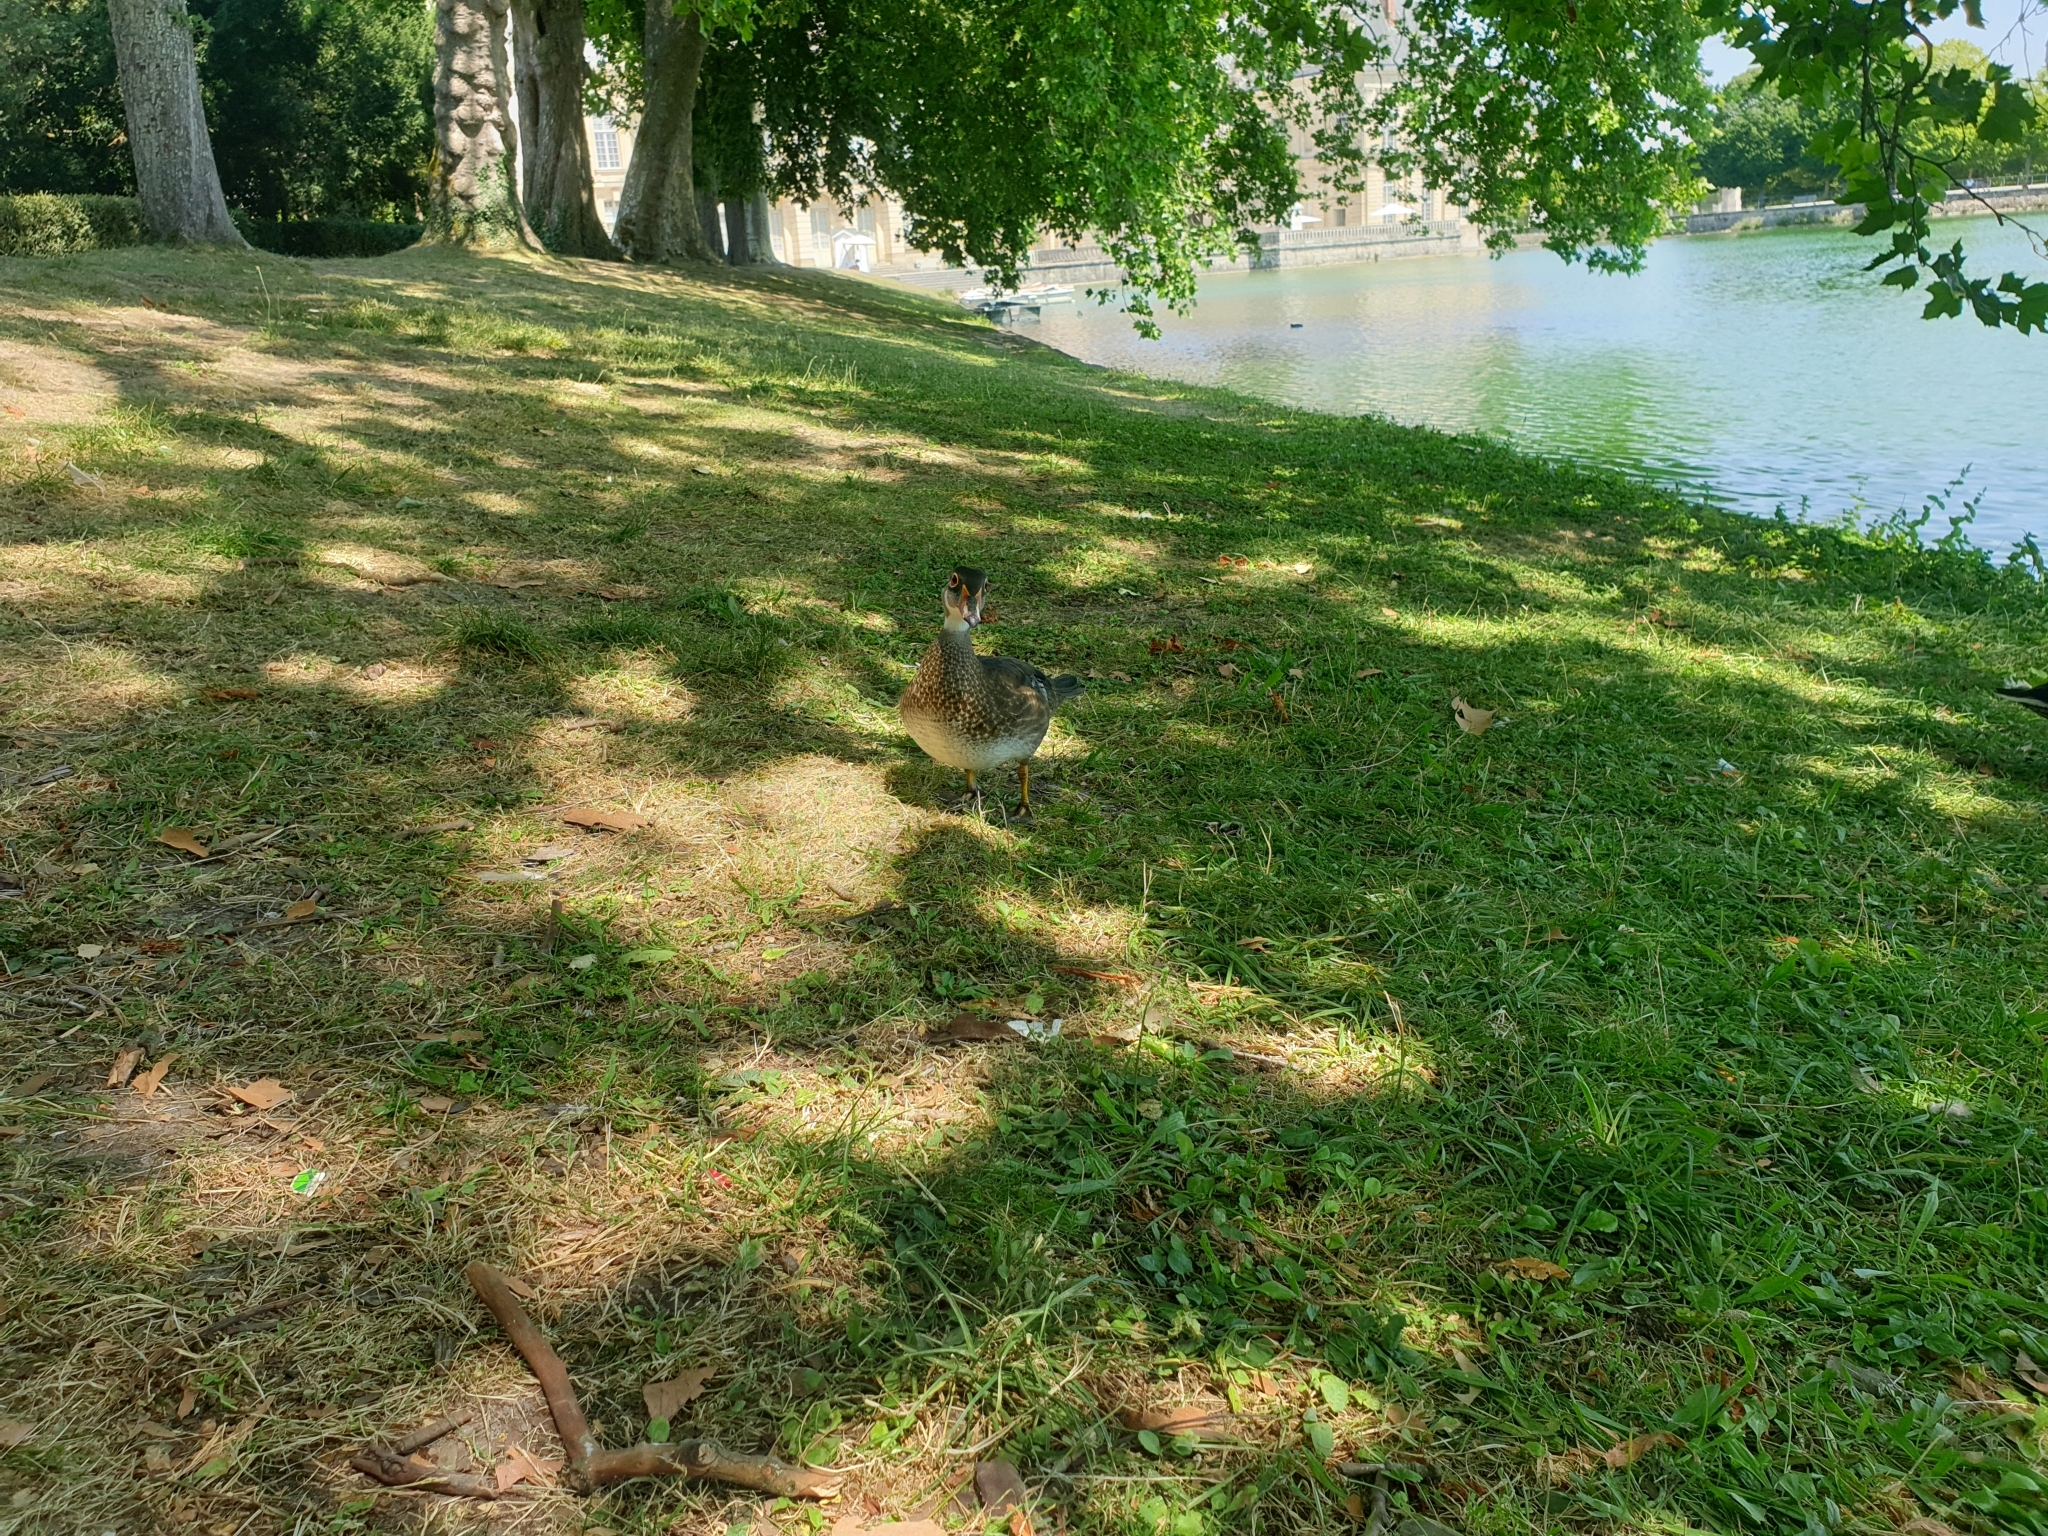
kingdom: Animalia
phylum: Chordata
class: Aves
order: Anseriformes
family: Anatidae
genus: Aix
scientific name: Aix sponsa
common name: Wood duck
